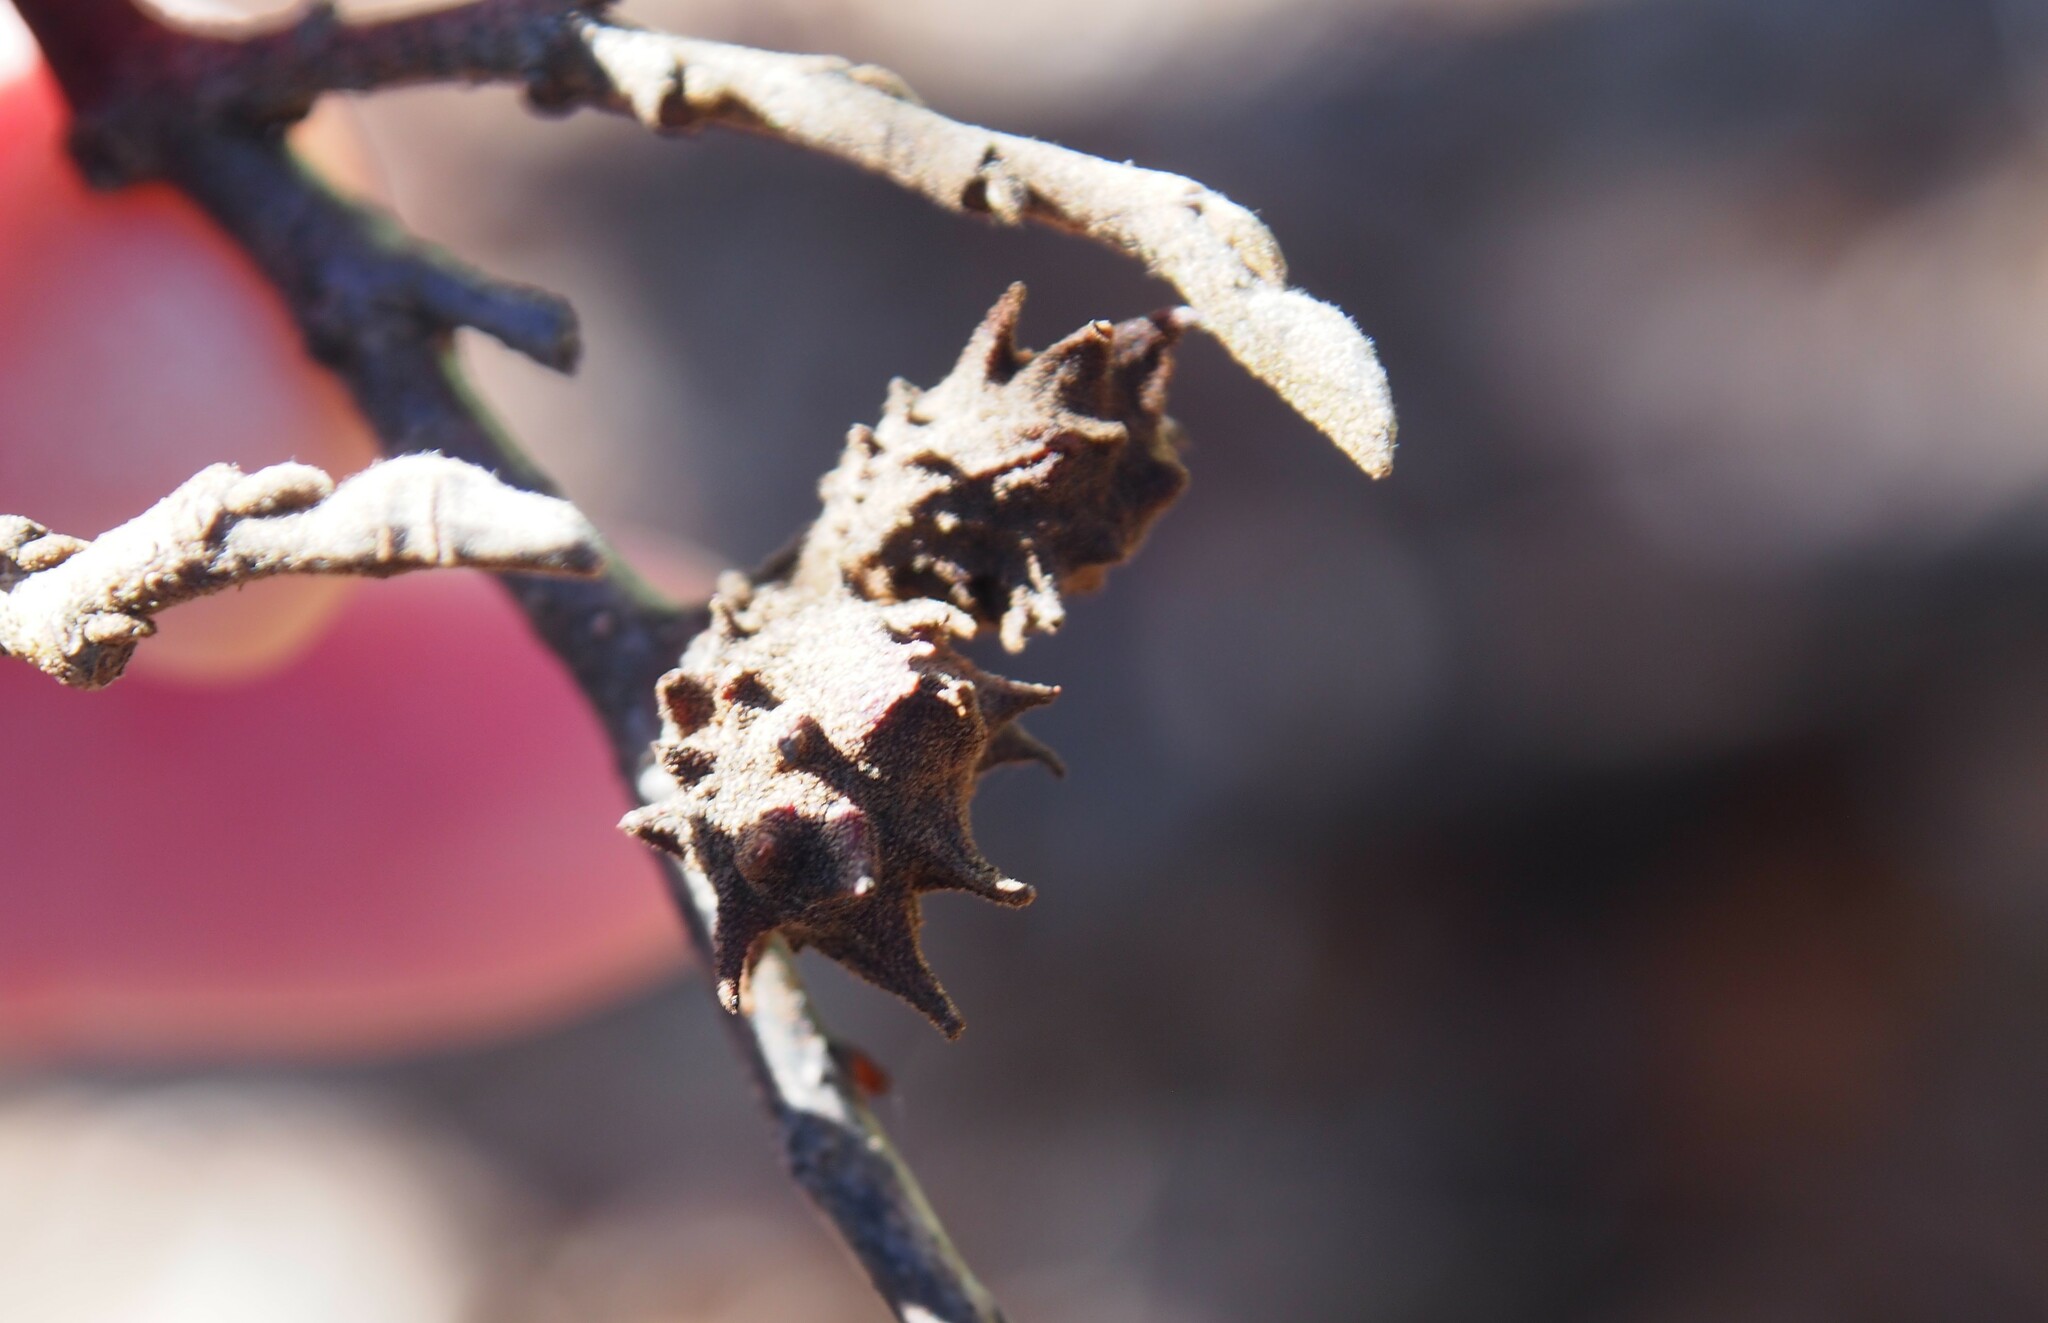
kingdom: Animalia
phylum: Arthropoda
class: Insecta
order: Hemiptera
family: Aphididae
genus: Hamamelistes
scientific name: Hamamelistes spinosus
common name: Witch hazel gall aphid
